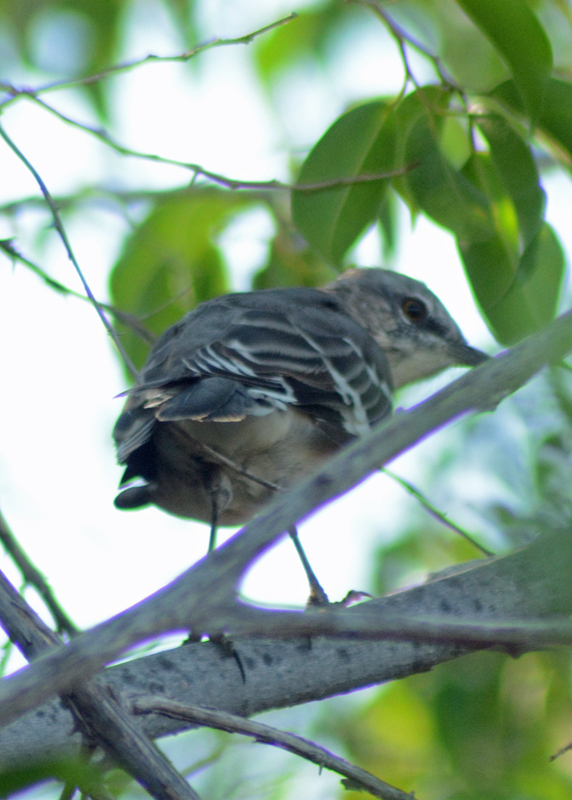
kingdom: Animalia
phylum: Chordata
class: Aves
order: Passeriformes
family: Mimidae
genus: Mimus
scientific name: Mimus polyglottos
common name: Northern mockingbird
